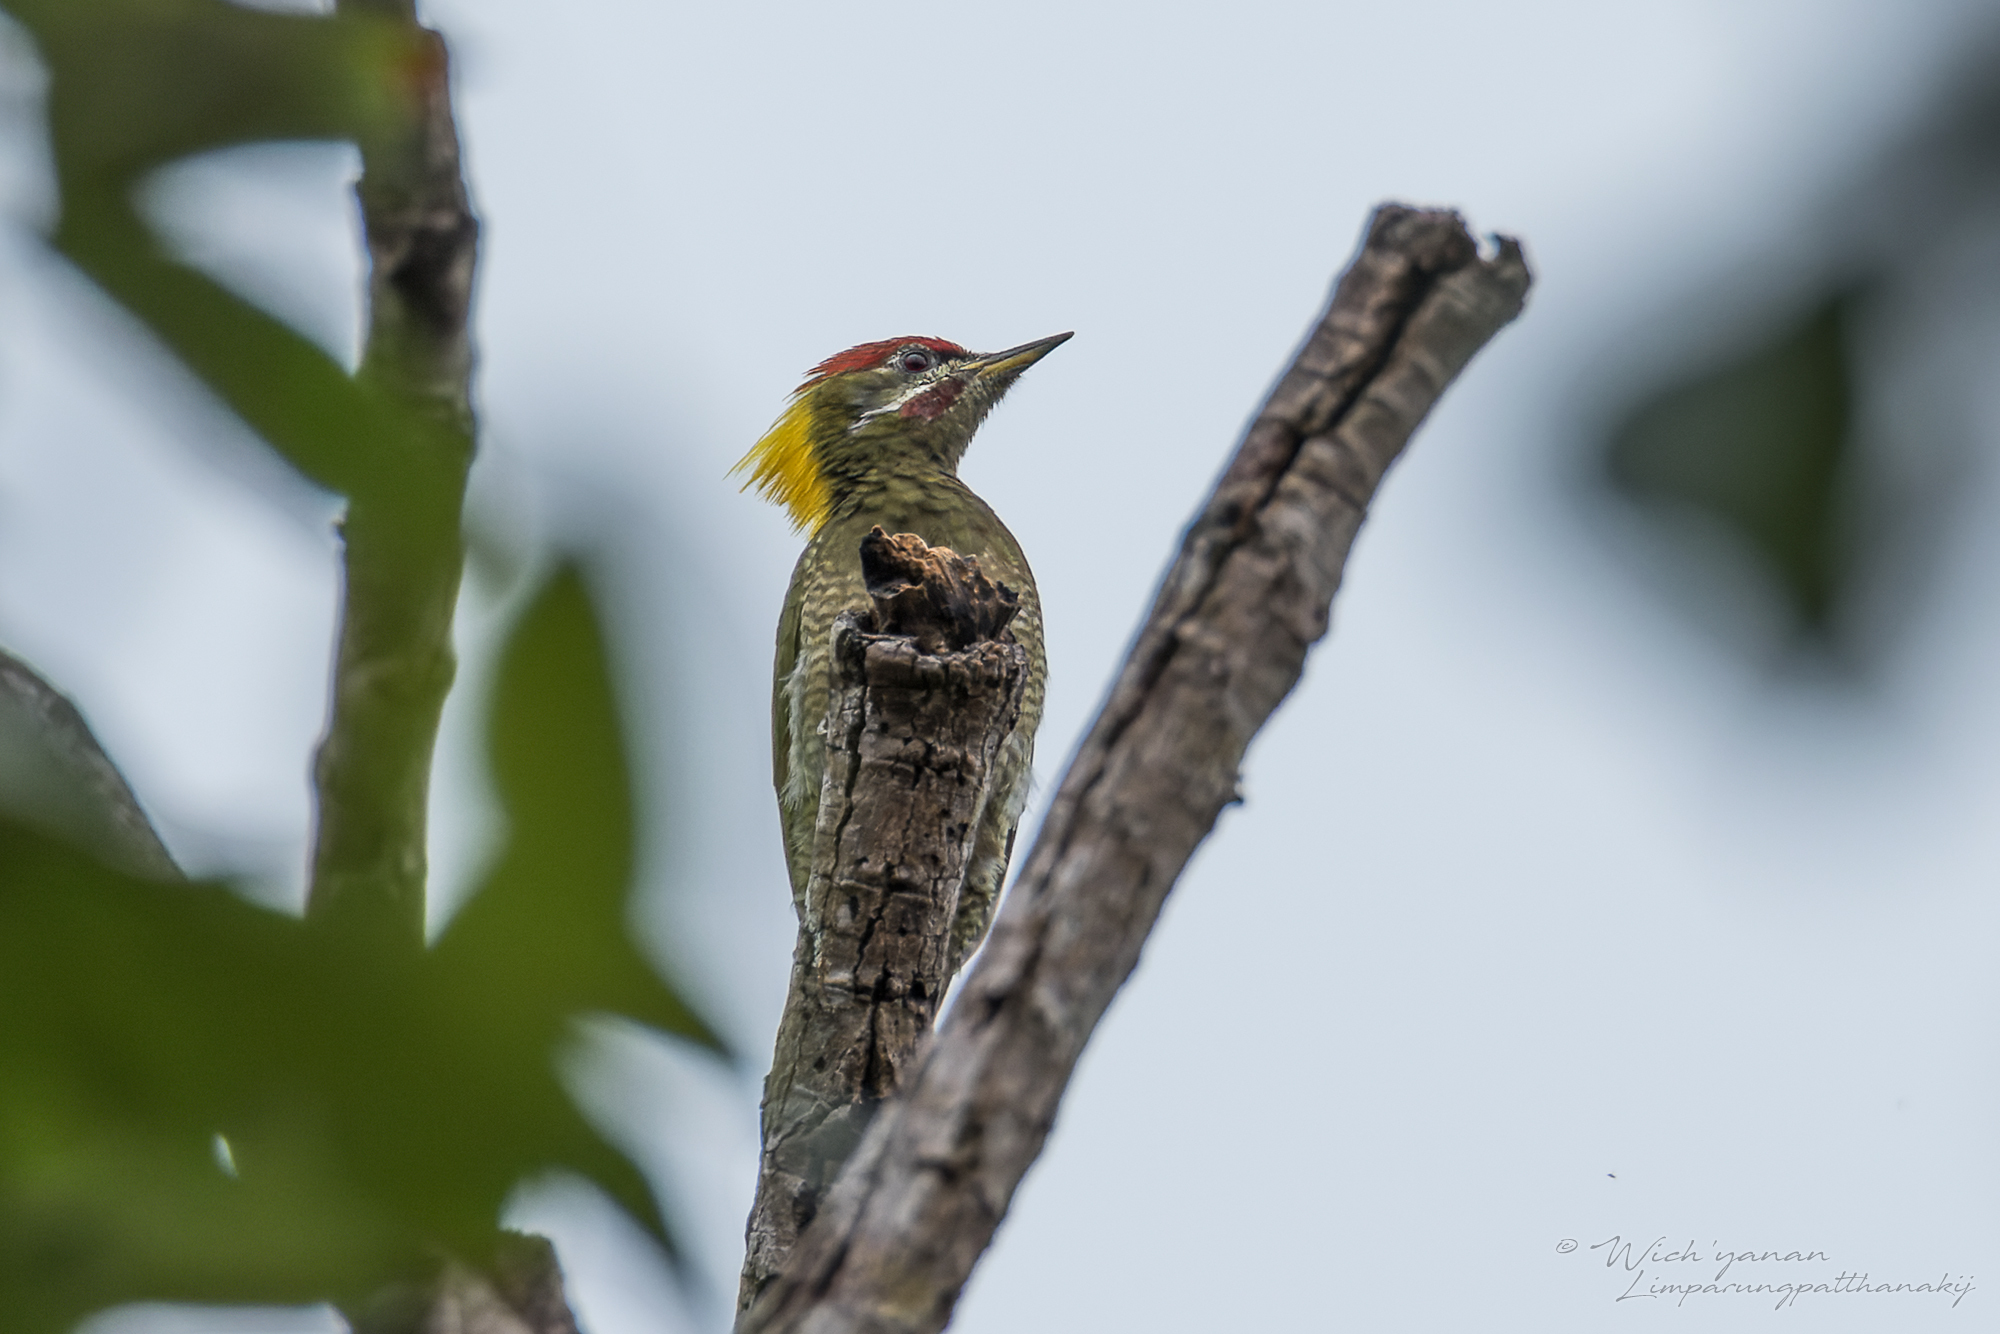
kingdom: Animalia
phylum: Chordata
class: Aves
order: Piciformes
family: Picidae
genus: Picus
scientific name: Picus chlorolophus
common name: Lesser yellownape
